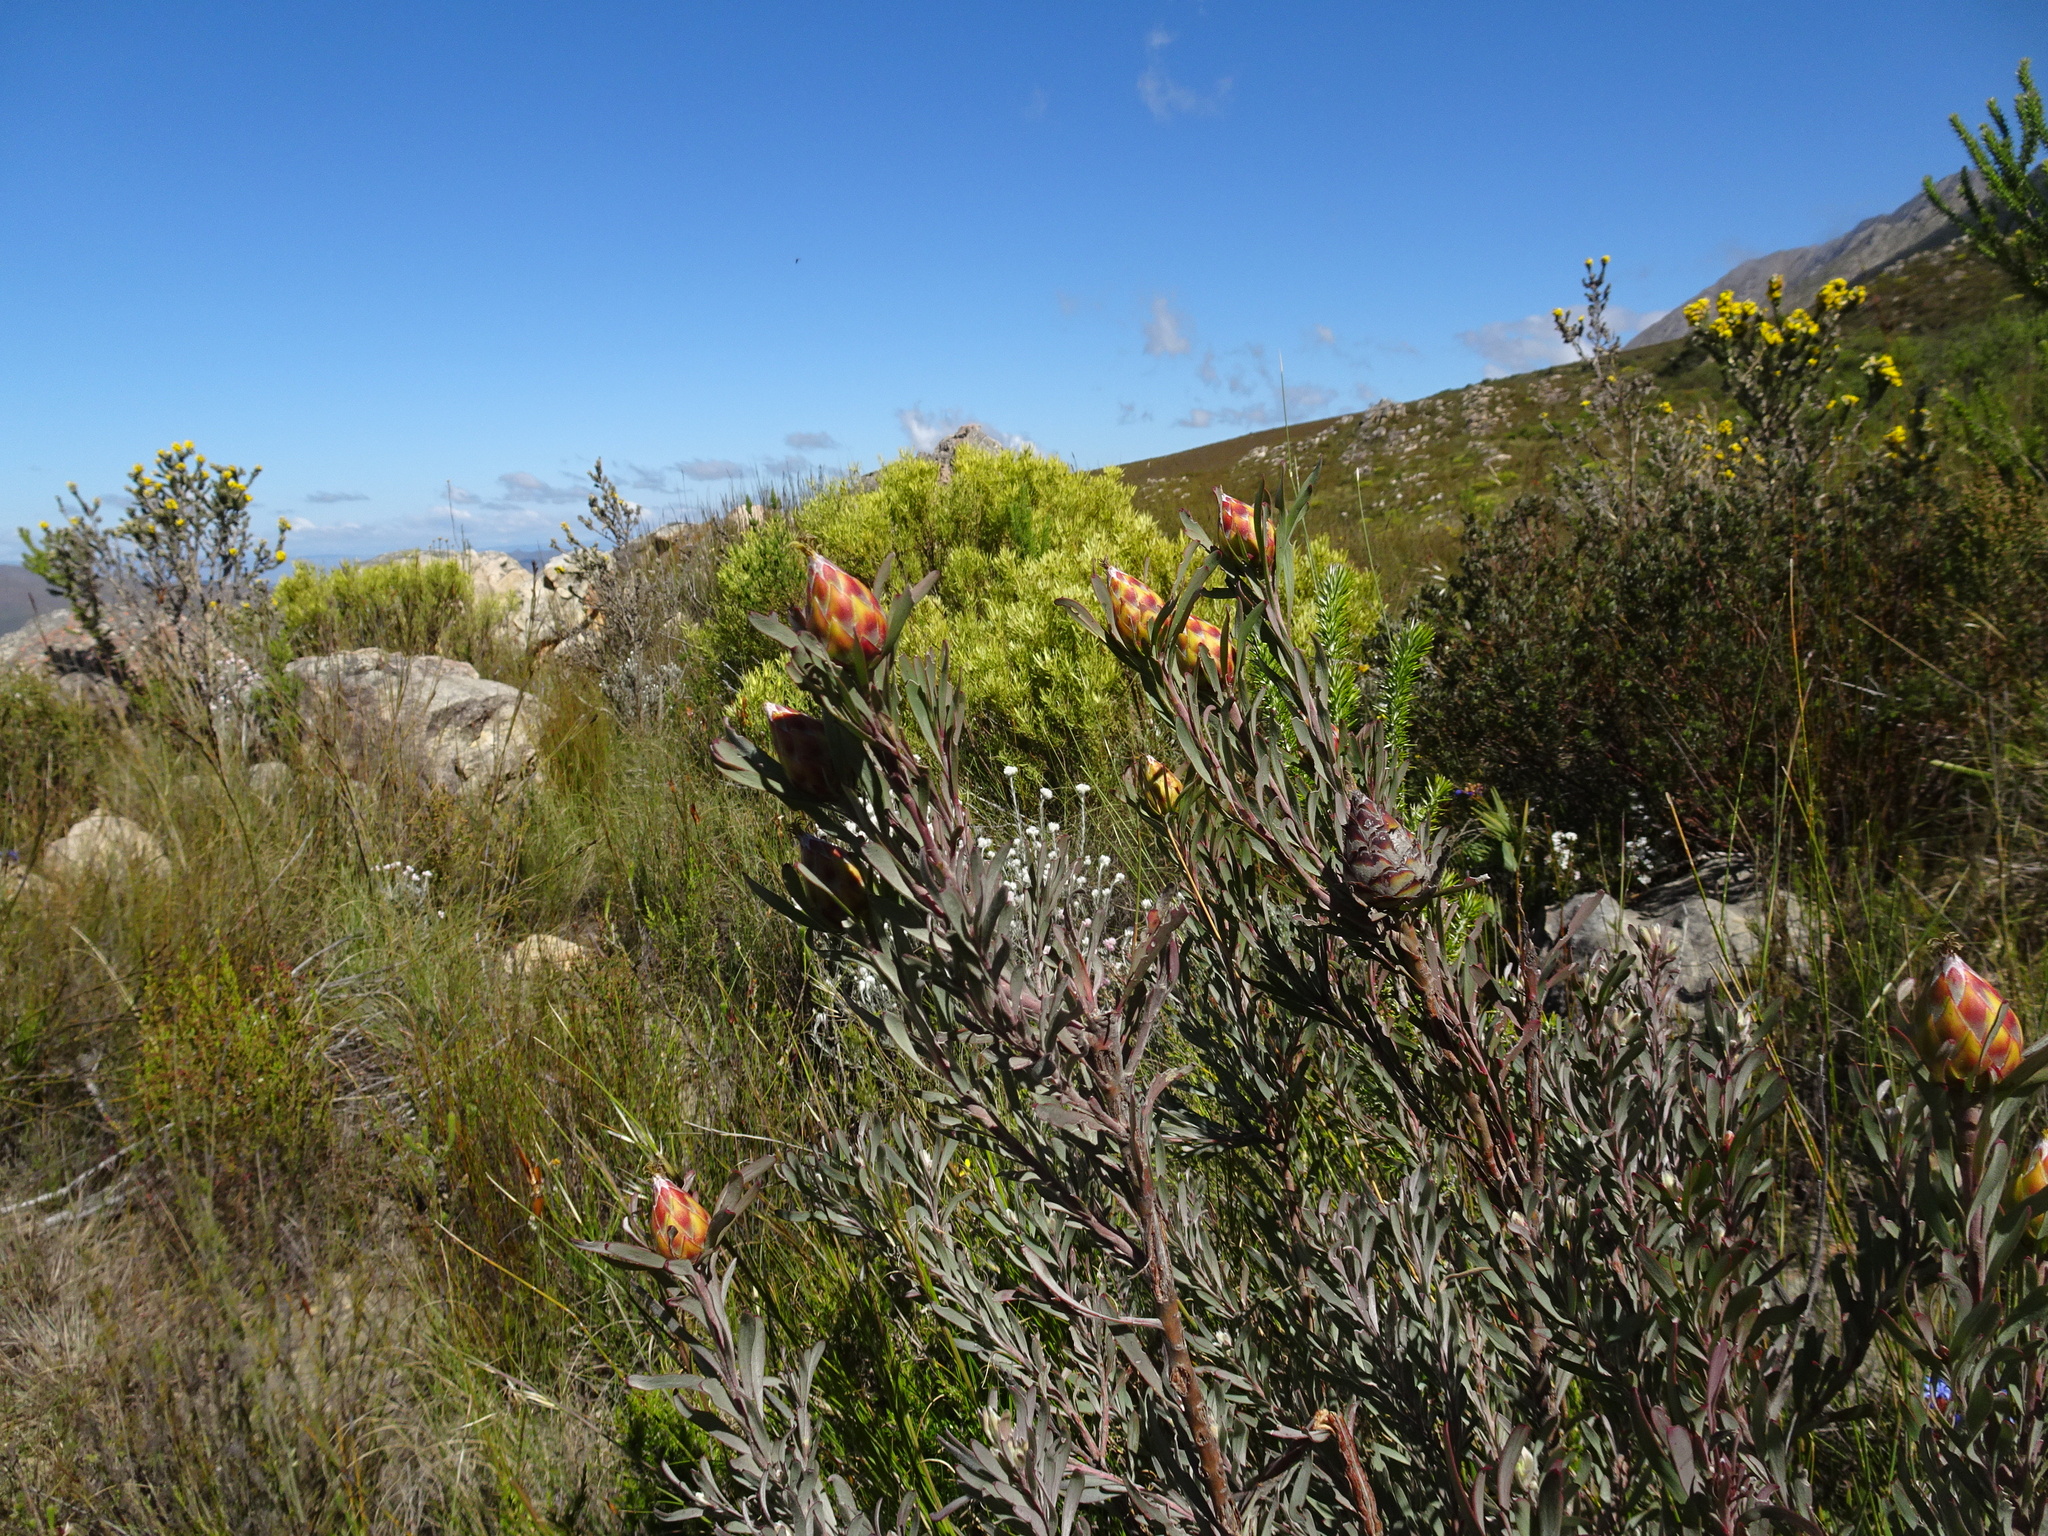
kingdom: Plantae
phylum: Tracheophyta
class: Magnoliopsida
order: Proteales
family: Proteaceae
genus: Leucadendron
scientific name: Leucadendron rubrum
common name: Spinning top
